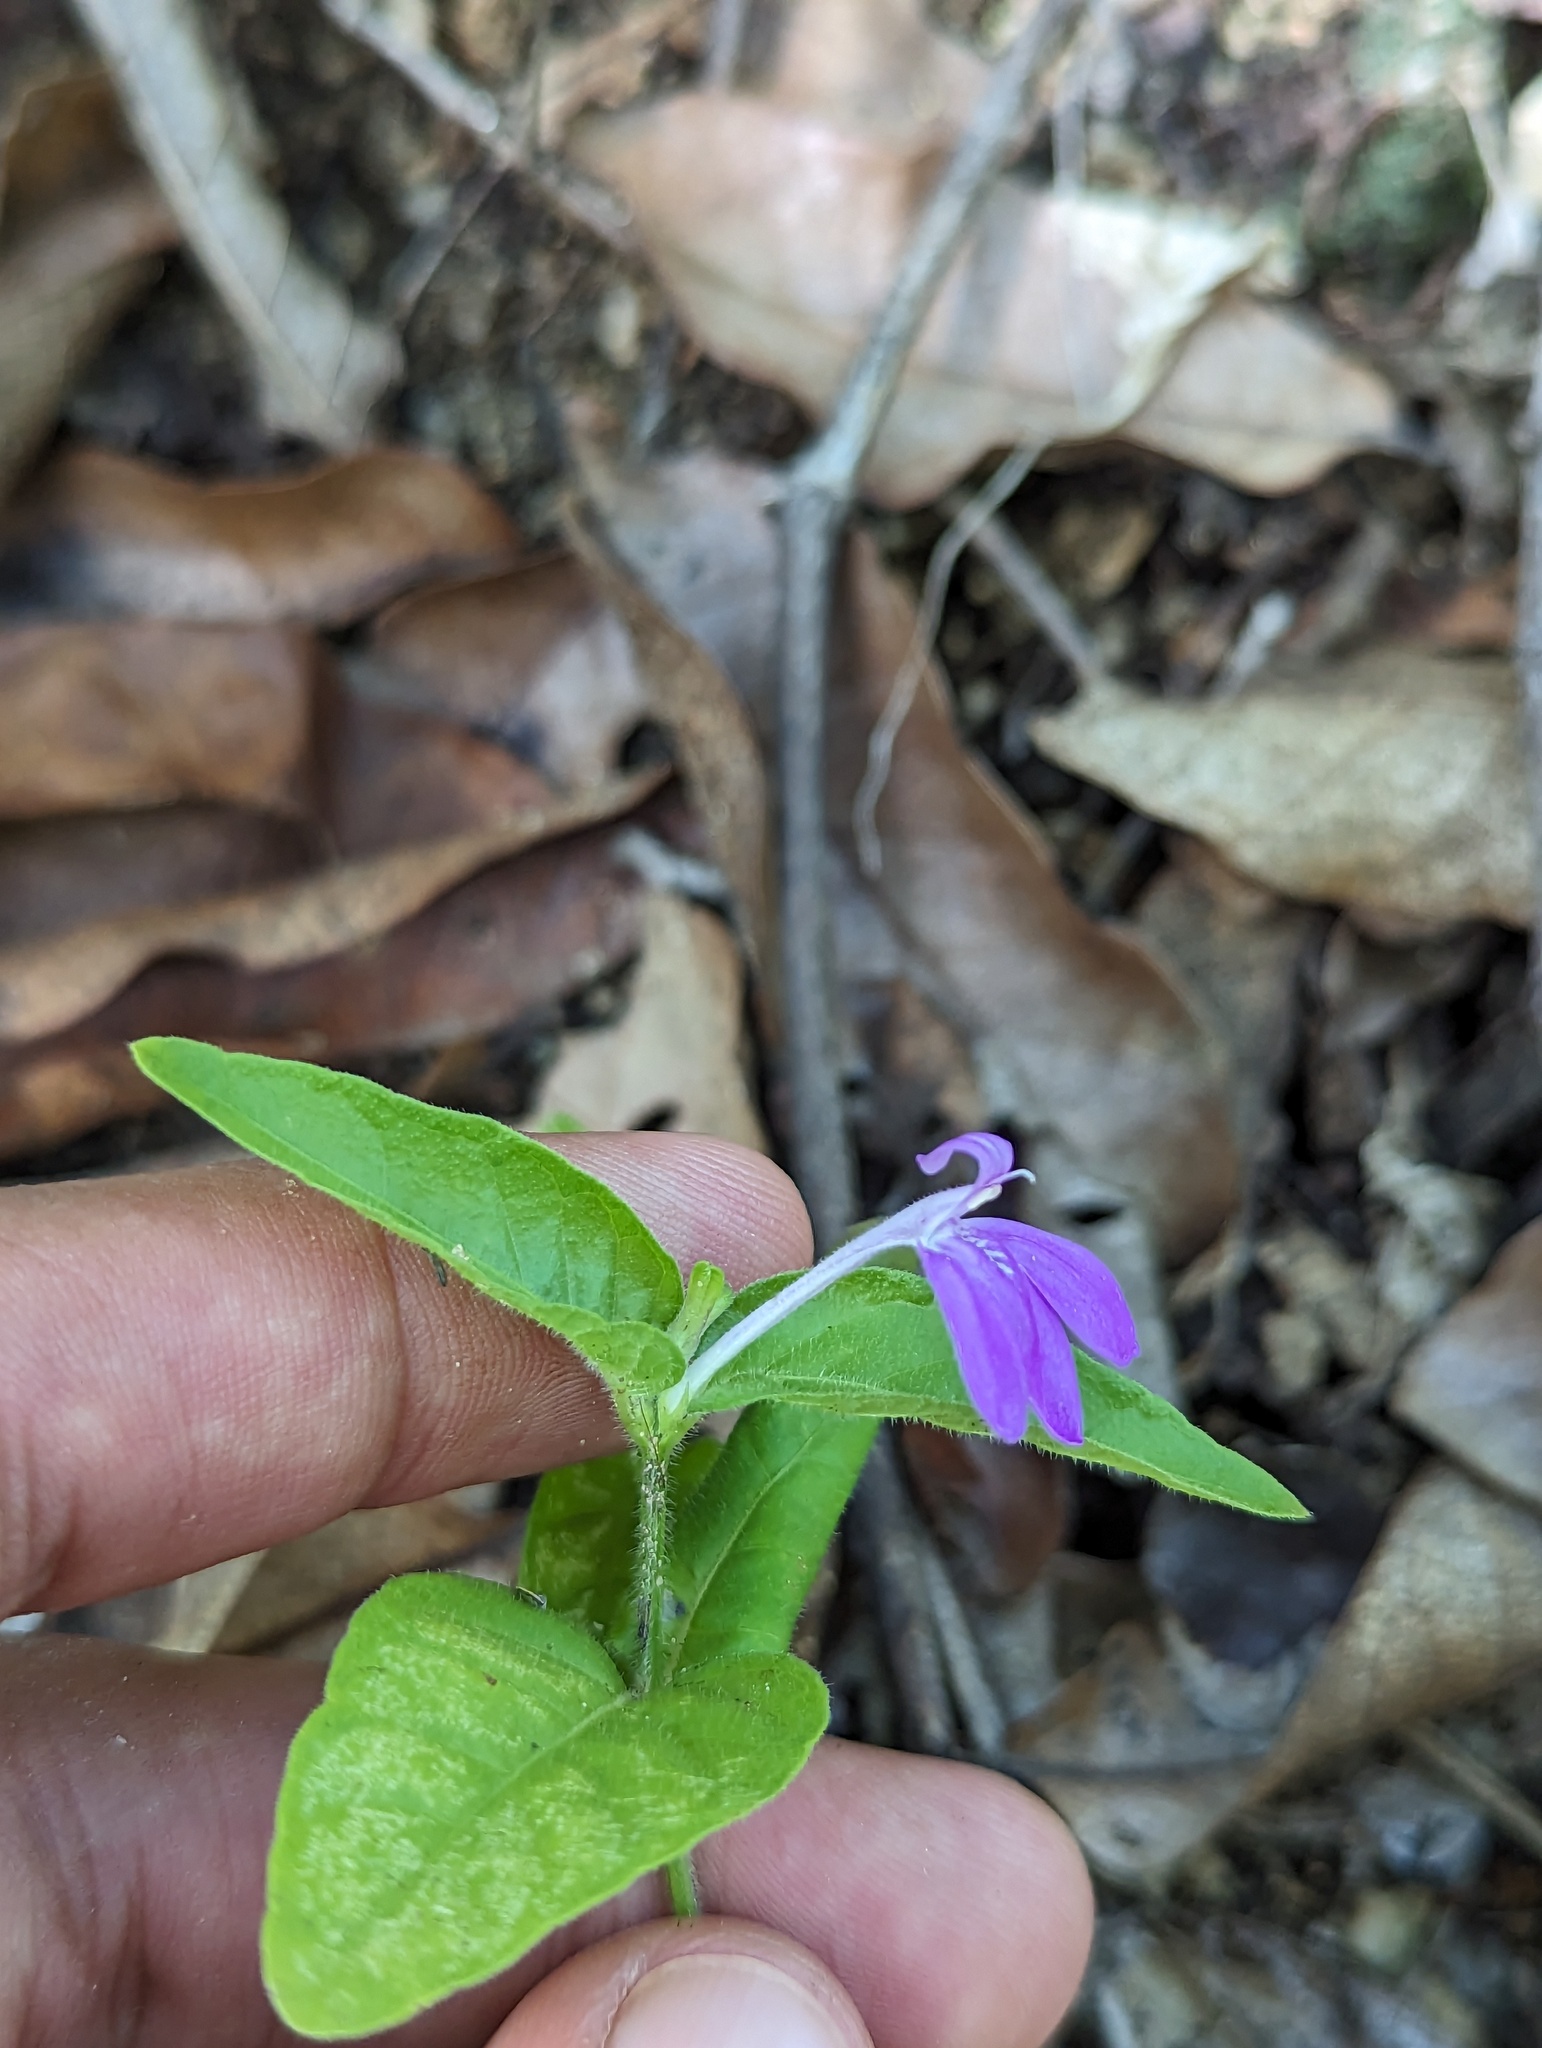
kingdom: Plantae
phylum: Tracheophyta
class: Magnoliopsida
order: Lamiales
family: Acanthaceae
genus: Dianthera
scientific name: Dianthera incerta
